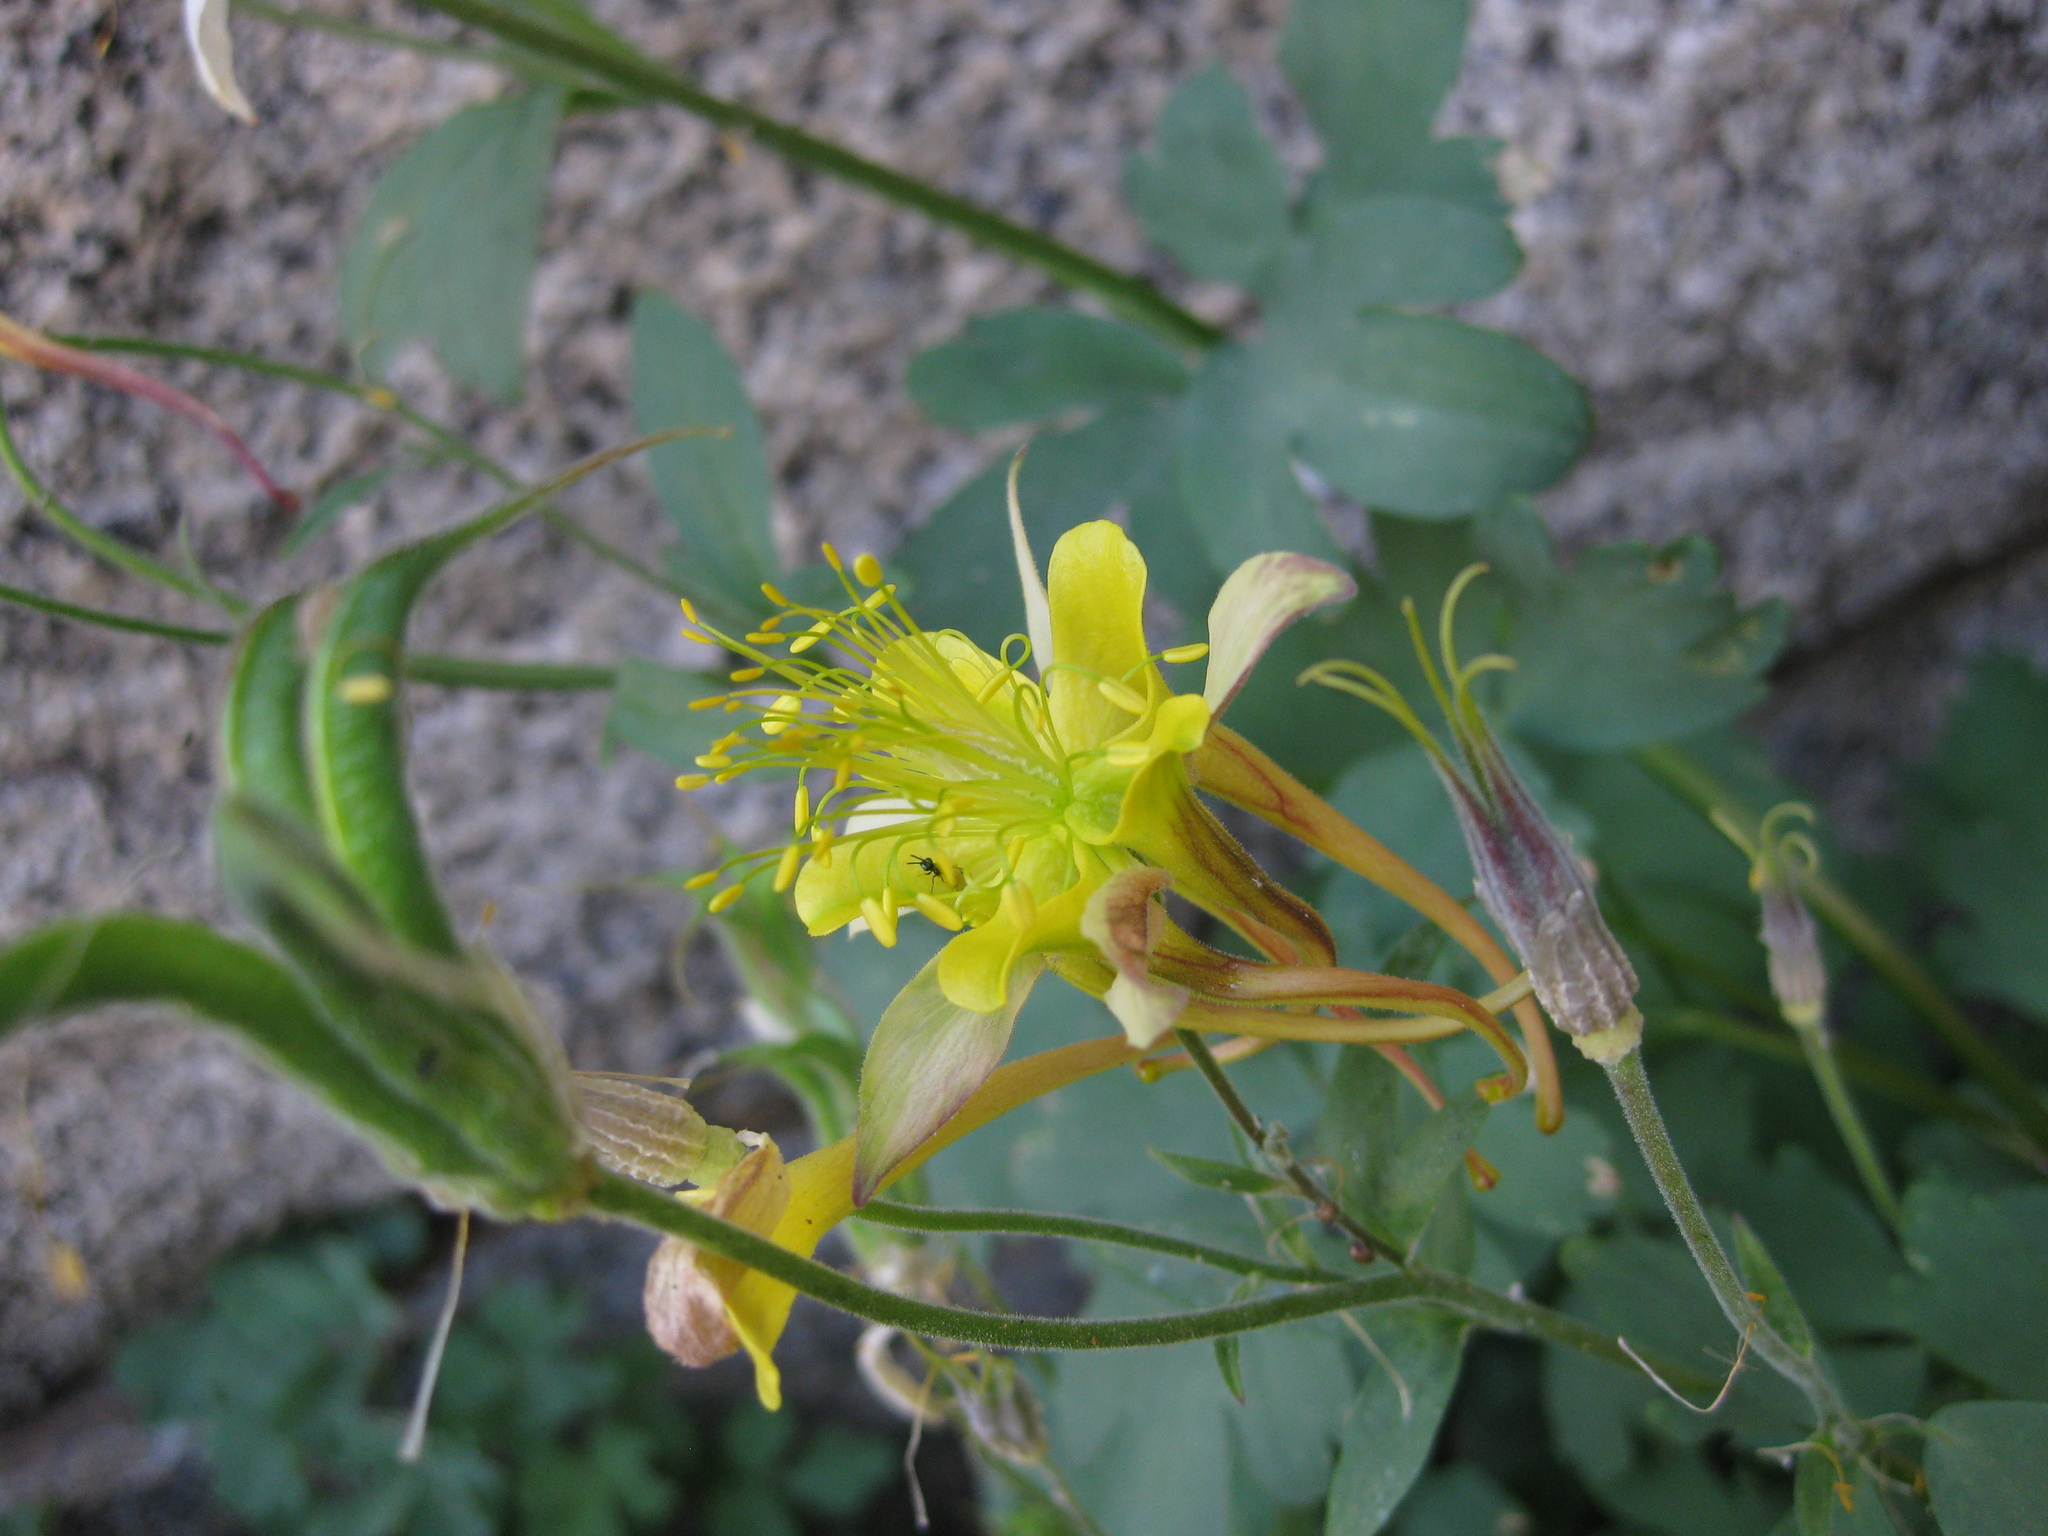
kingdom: Plantae
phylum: Tracheophyta
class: Magnoliopsida
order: Ranunculales
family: Ranunculaceae
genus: Aquilegia
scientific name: Aquilegia pubescens
